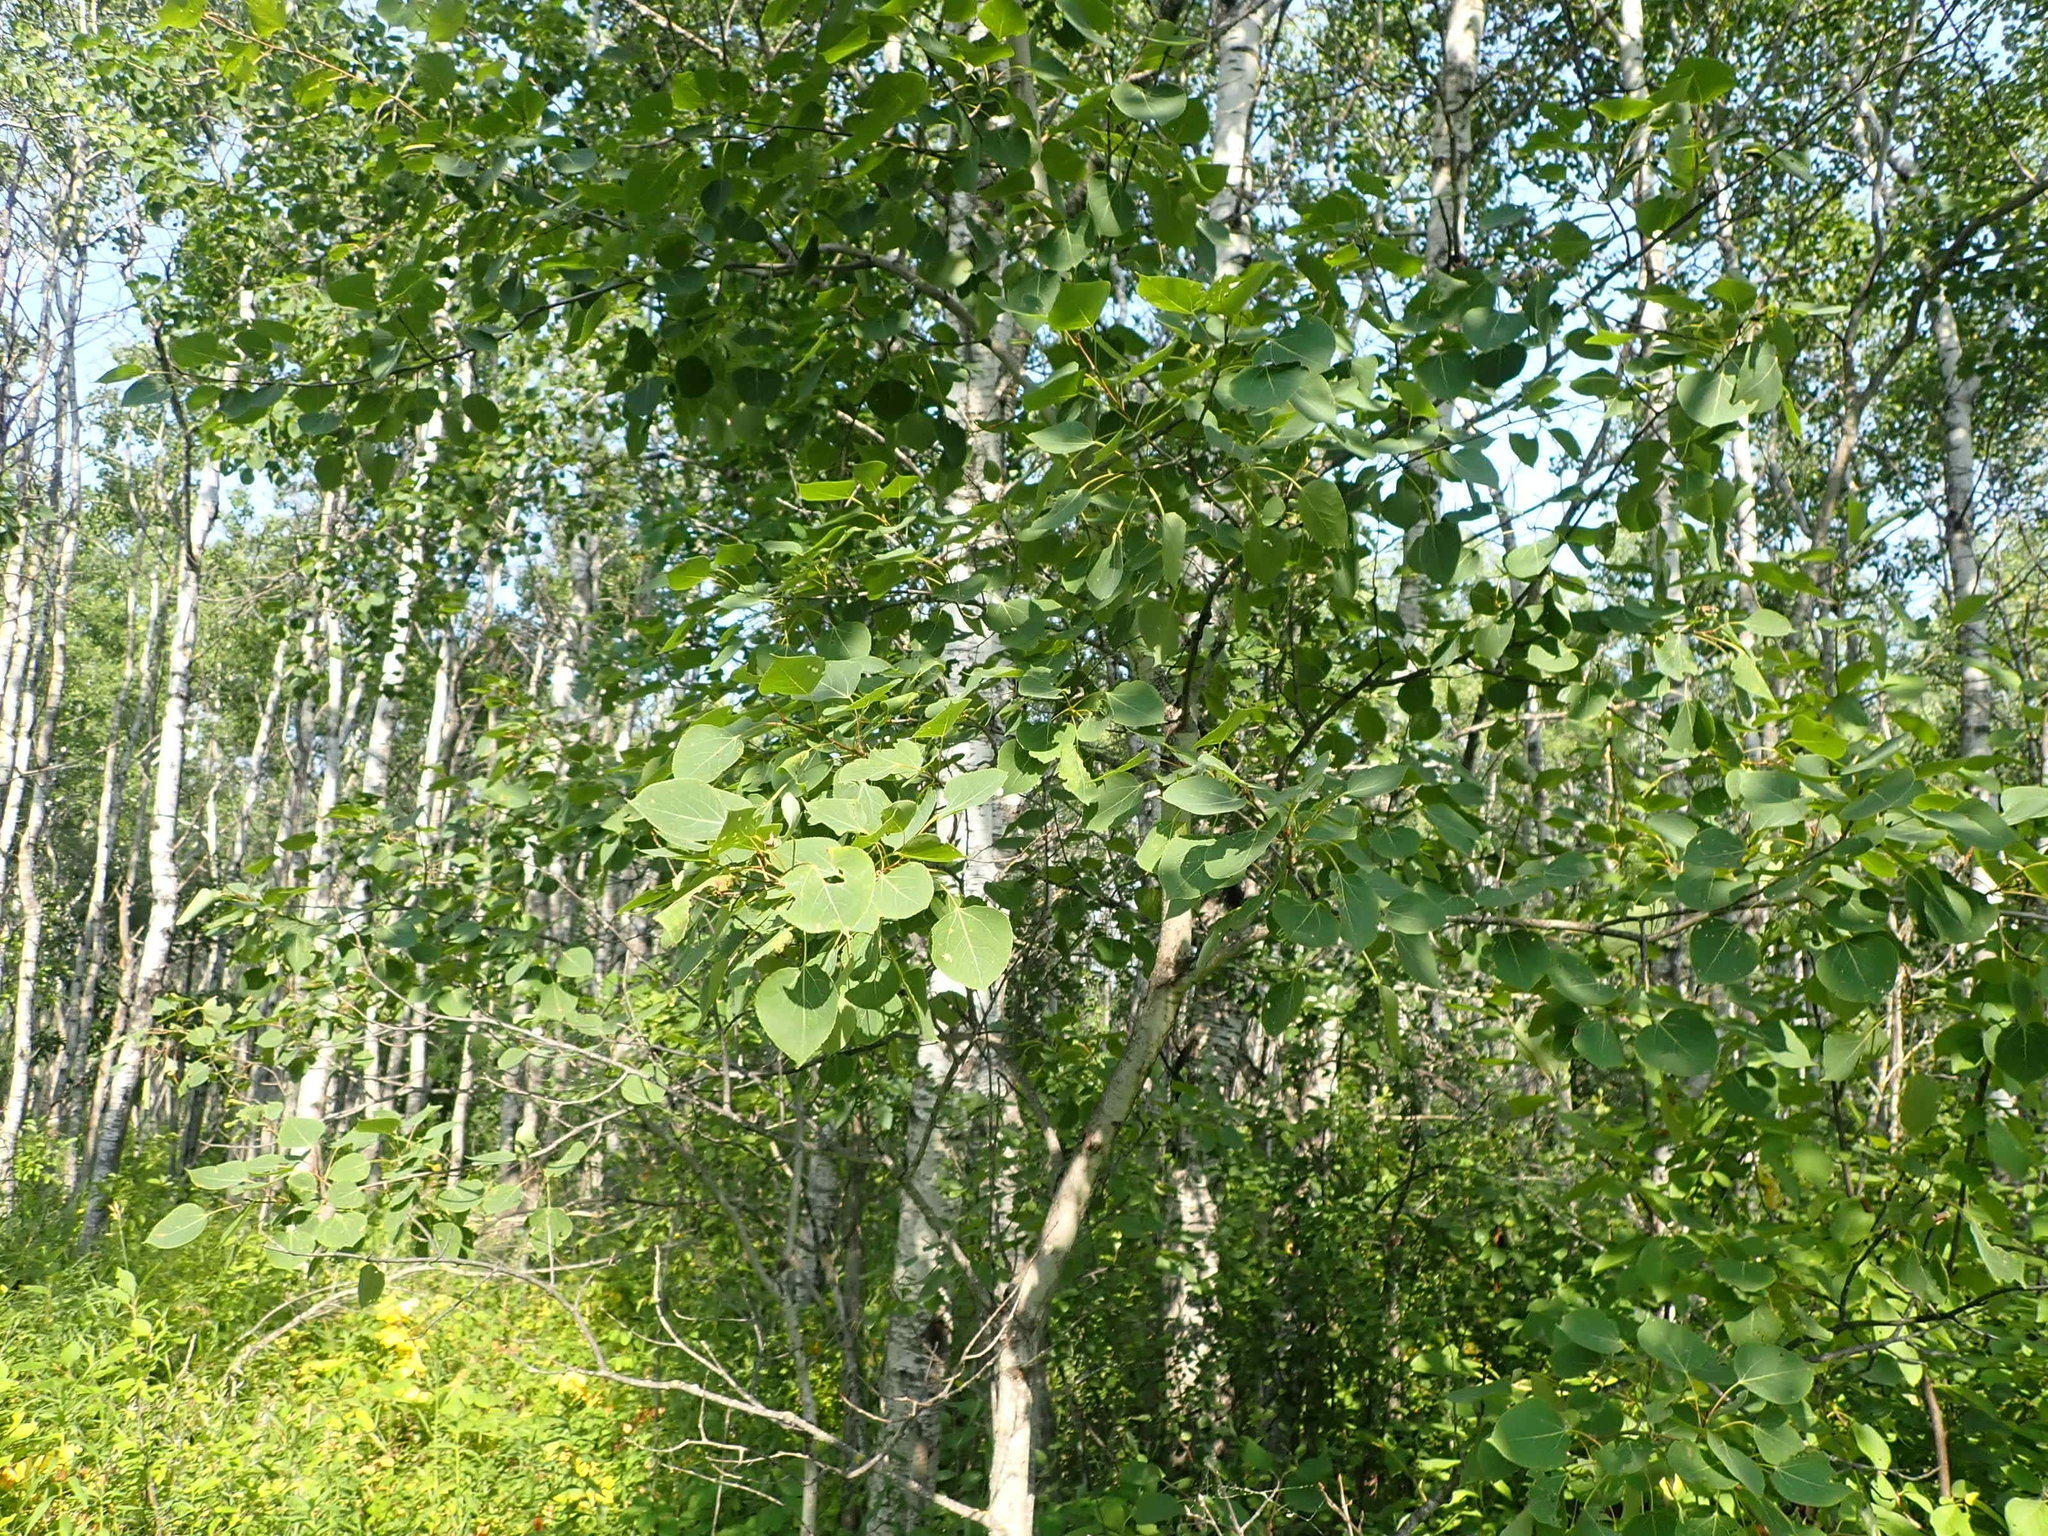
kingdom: Plantae
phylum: Tracheophyta
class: Magnoliopsida
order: Malpighiales
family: Salicaceae
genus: Populus
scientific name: Populus tremuloides
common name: Quaking aspen
